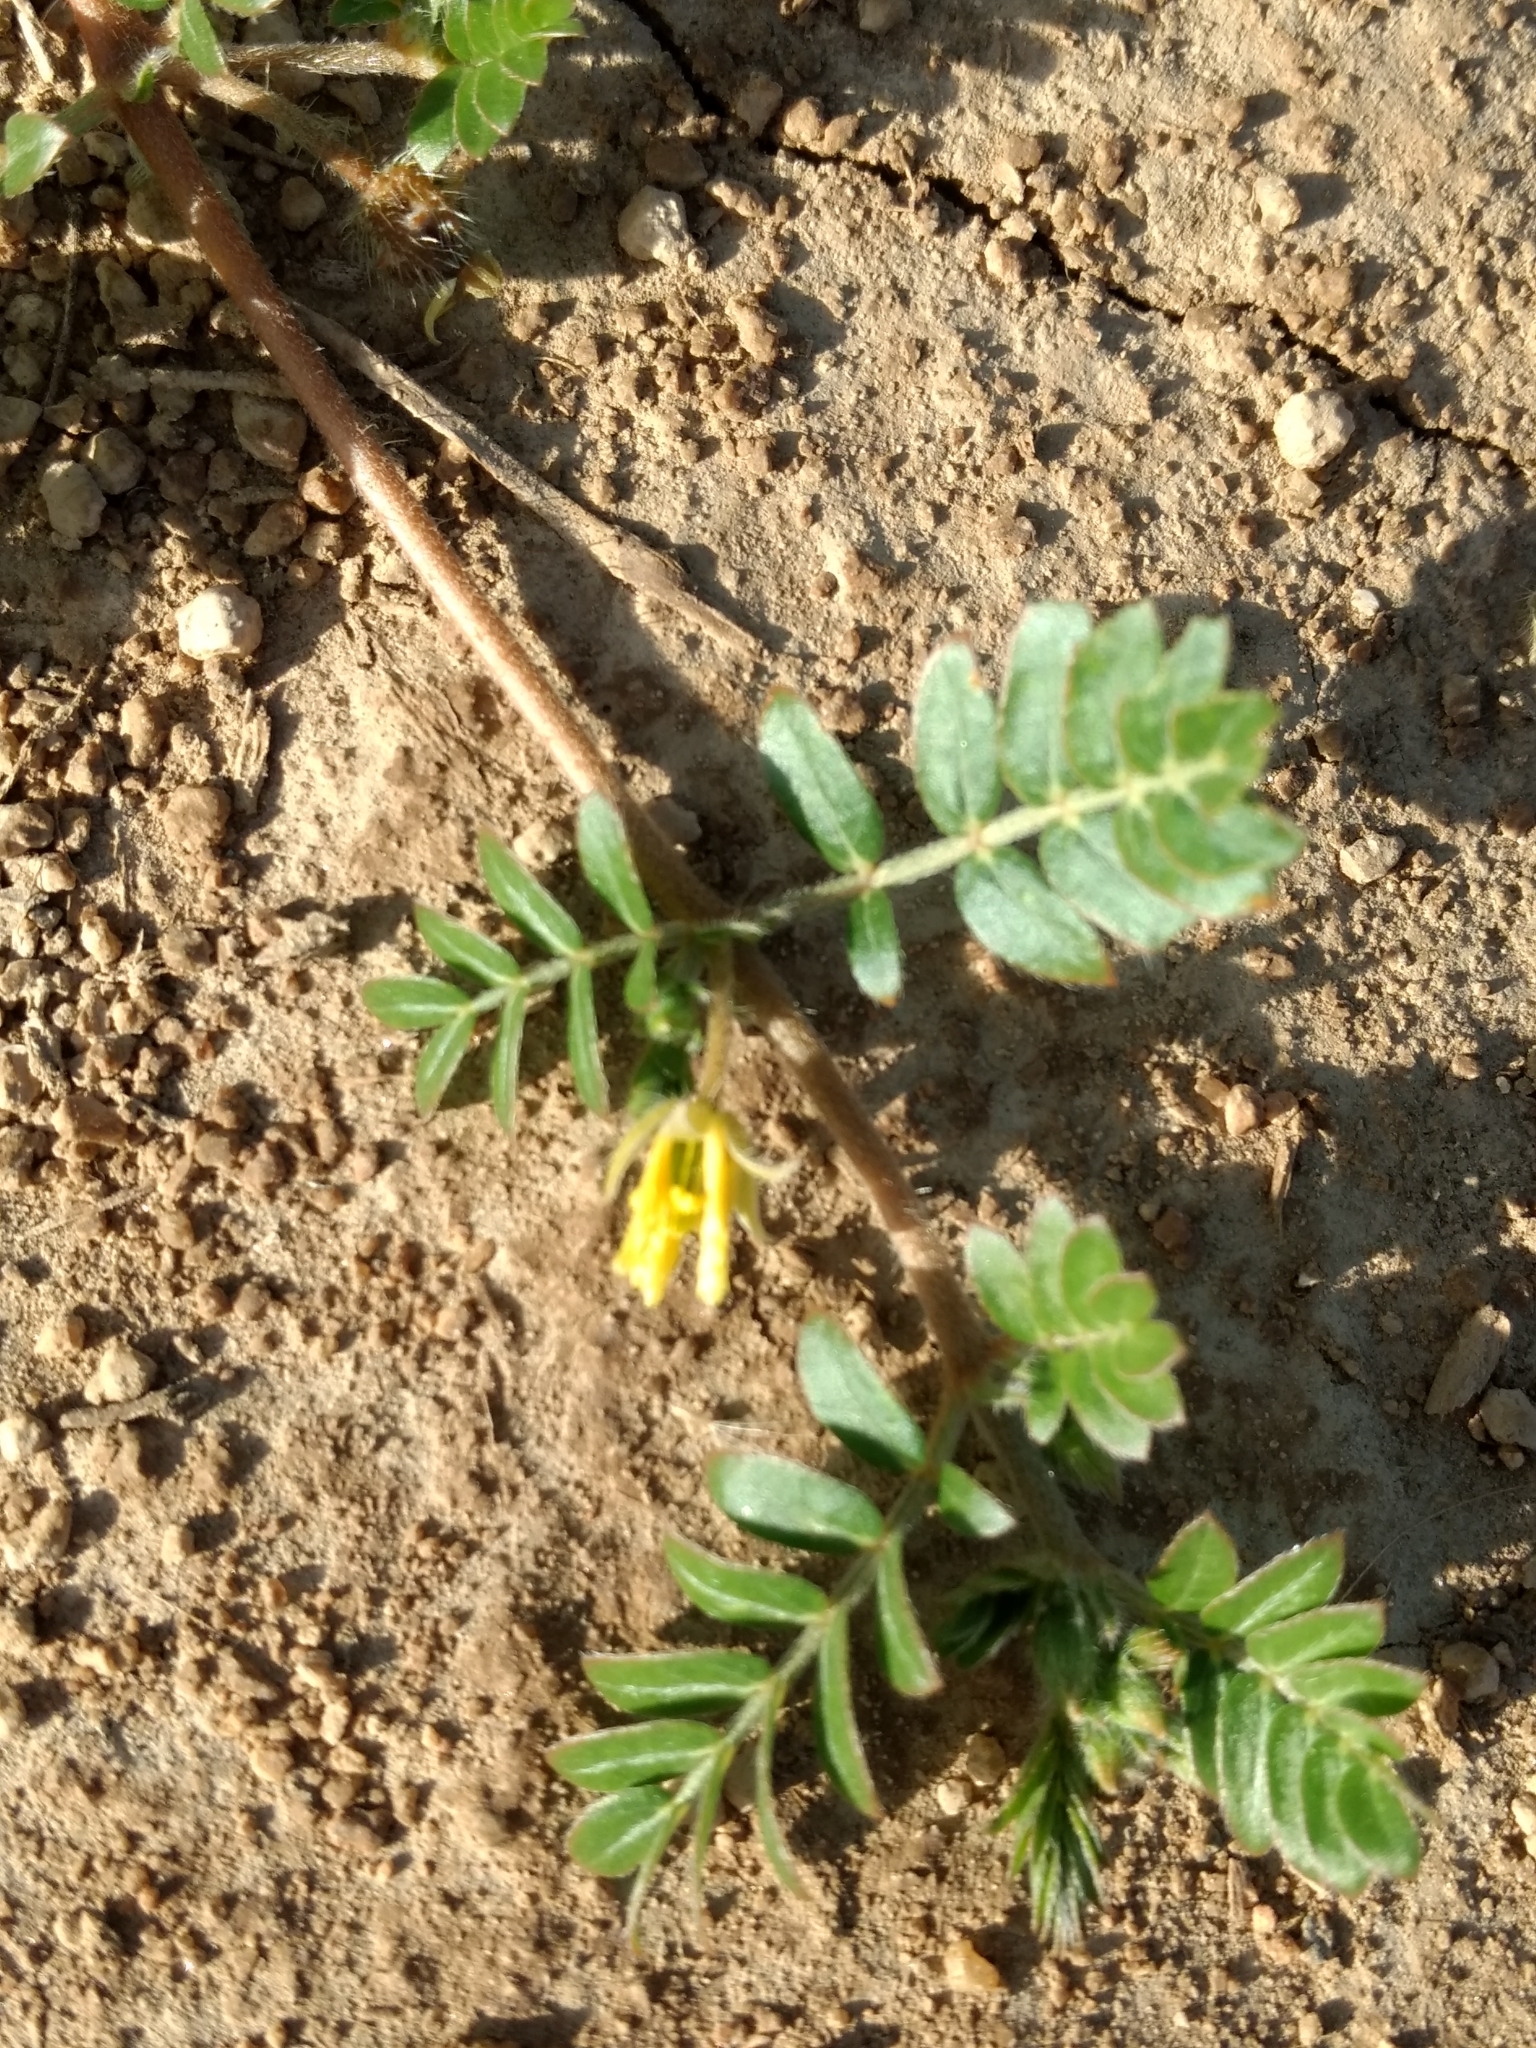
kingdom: Plantae
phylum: Tracheophyta
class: Magnoliopsida
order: Zygophyllales
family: Zygophyllaceae
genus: Tribulus
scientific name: Tribulus terrestris
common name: Puncturevine
